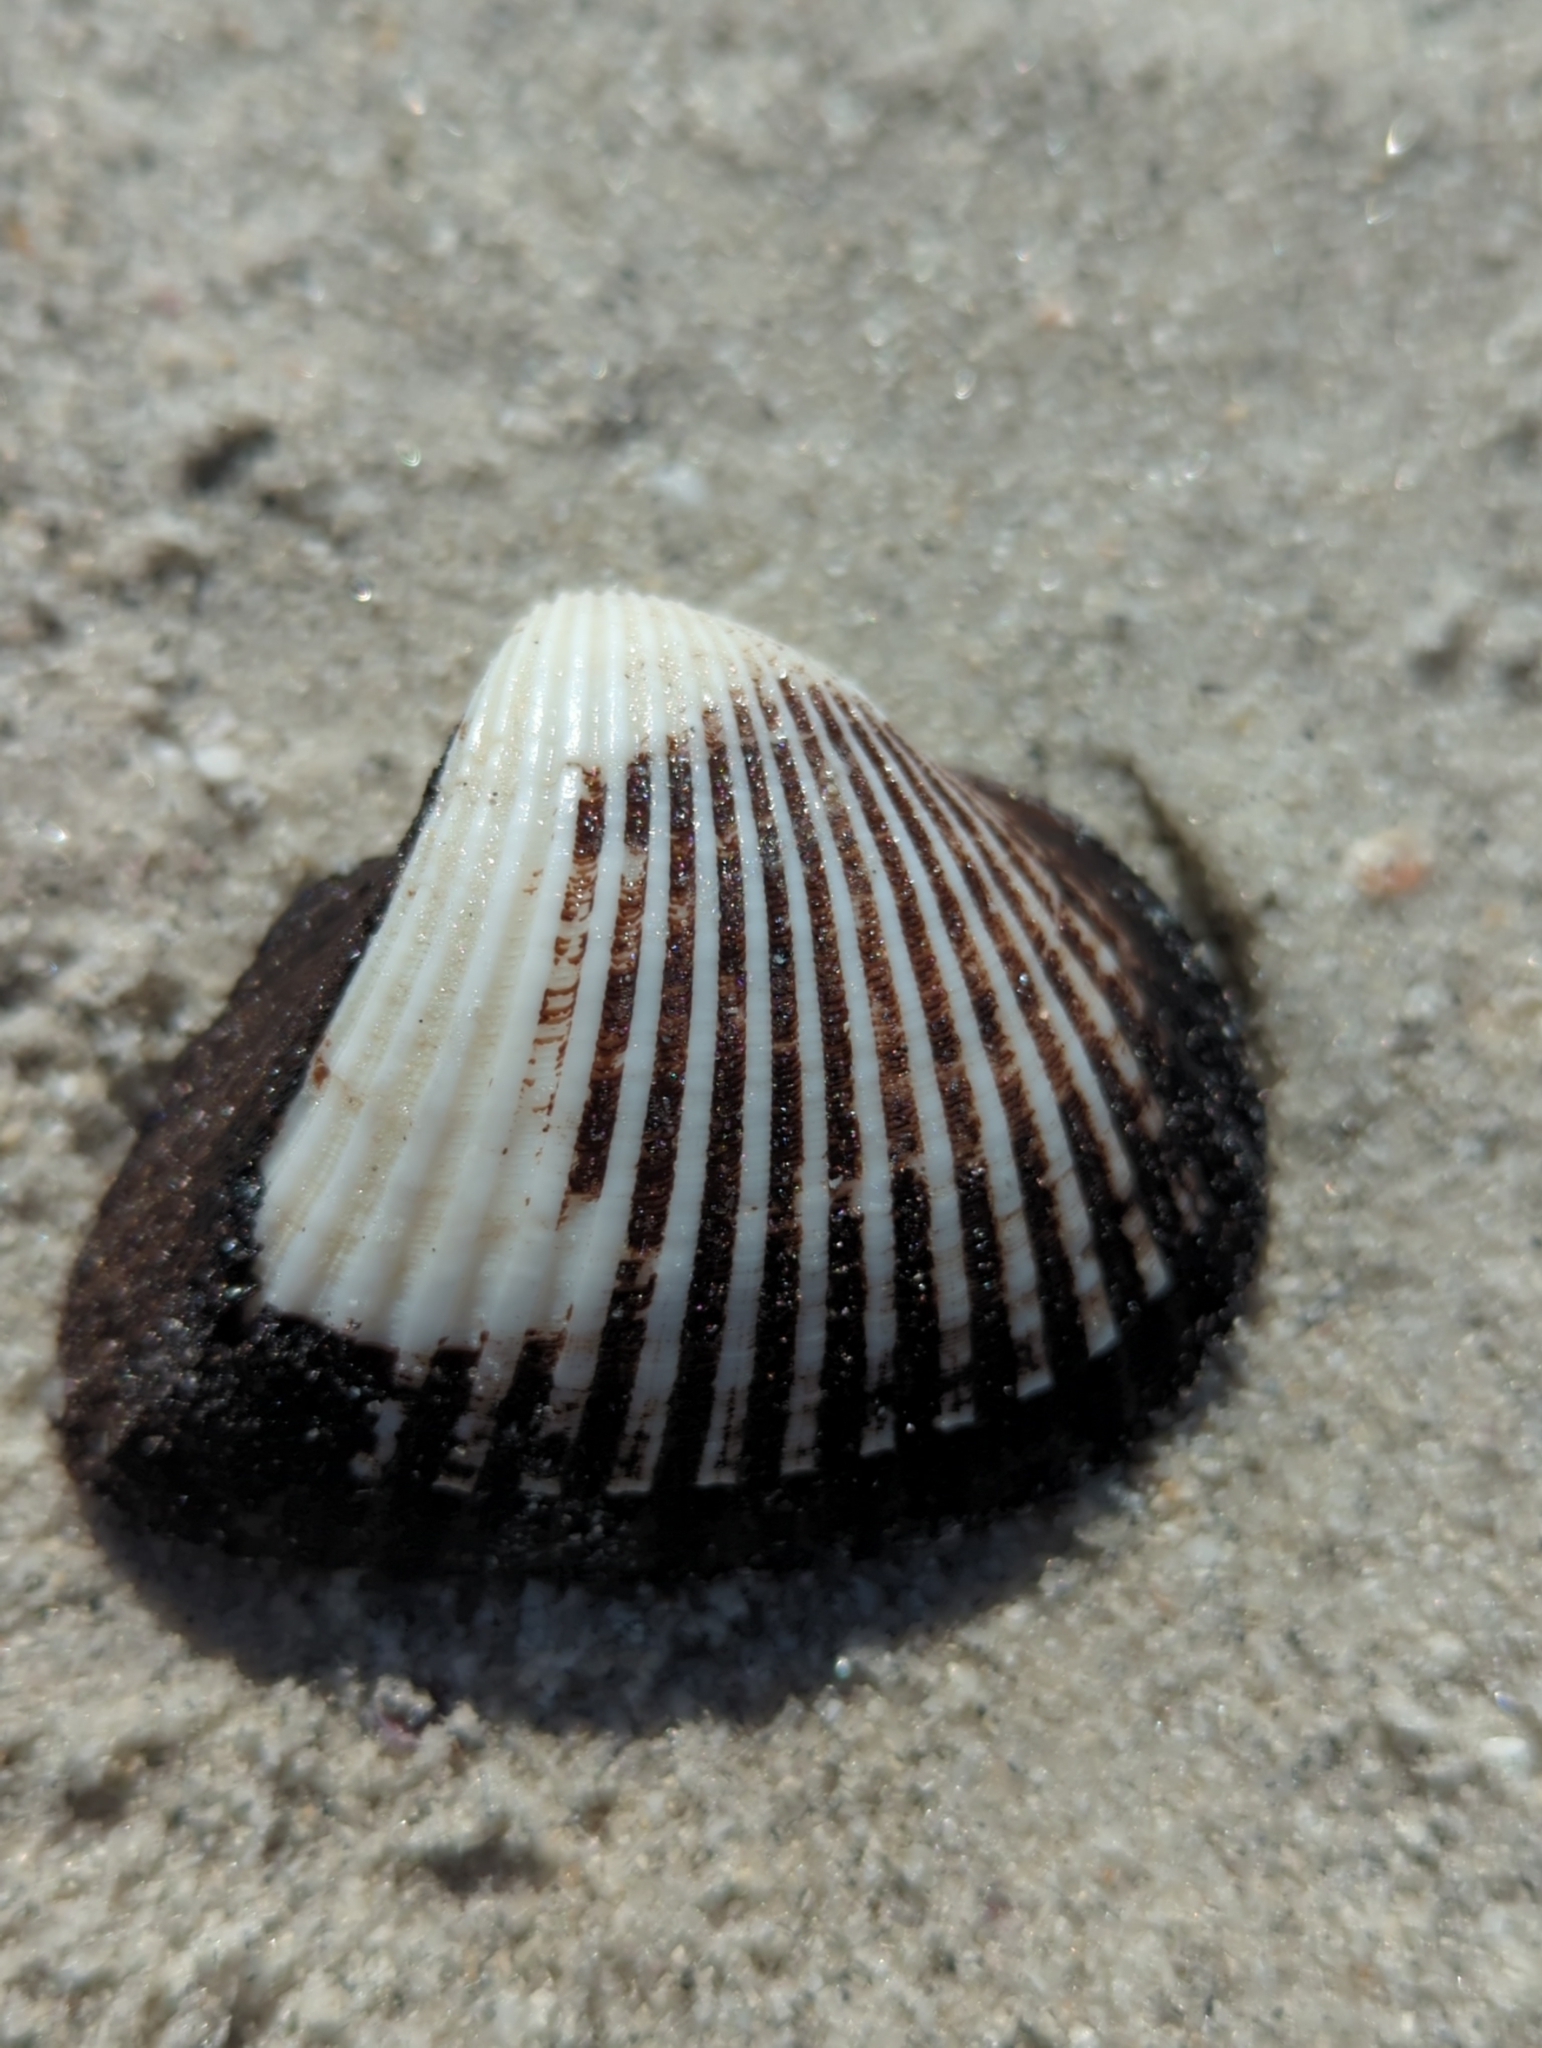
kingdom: Animalia
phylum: Mollusca
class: Bivalvia
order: Arcida
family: Noetiidae
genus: Noetia
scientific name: Noetia ponderosa
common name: Ponderous ark
